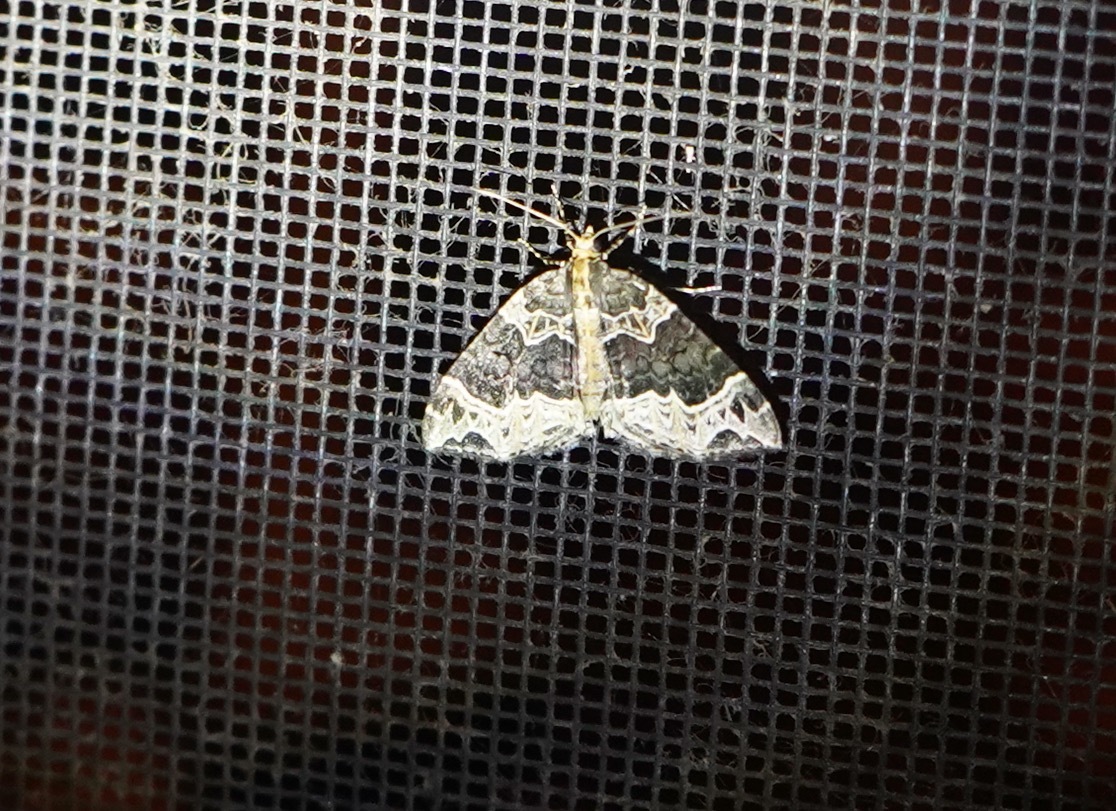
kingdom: Animalia
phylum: Arthropoda
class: Insecta
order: Lepidoptera
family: Geometridae
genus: Ecliptopera
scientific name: Ecliptopera silaceata
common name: Small phoenix
